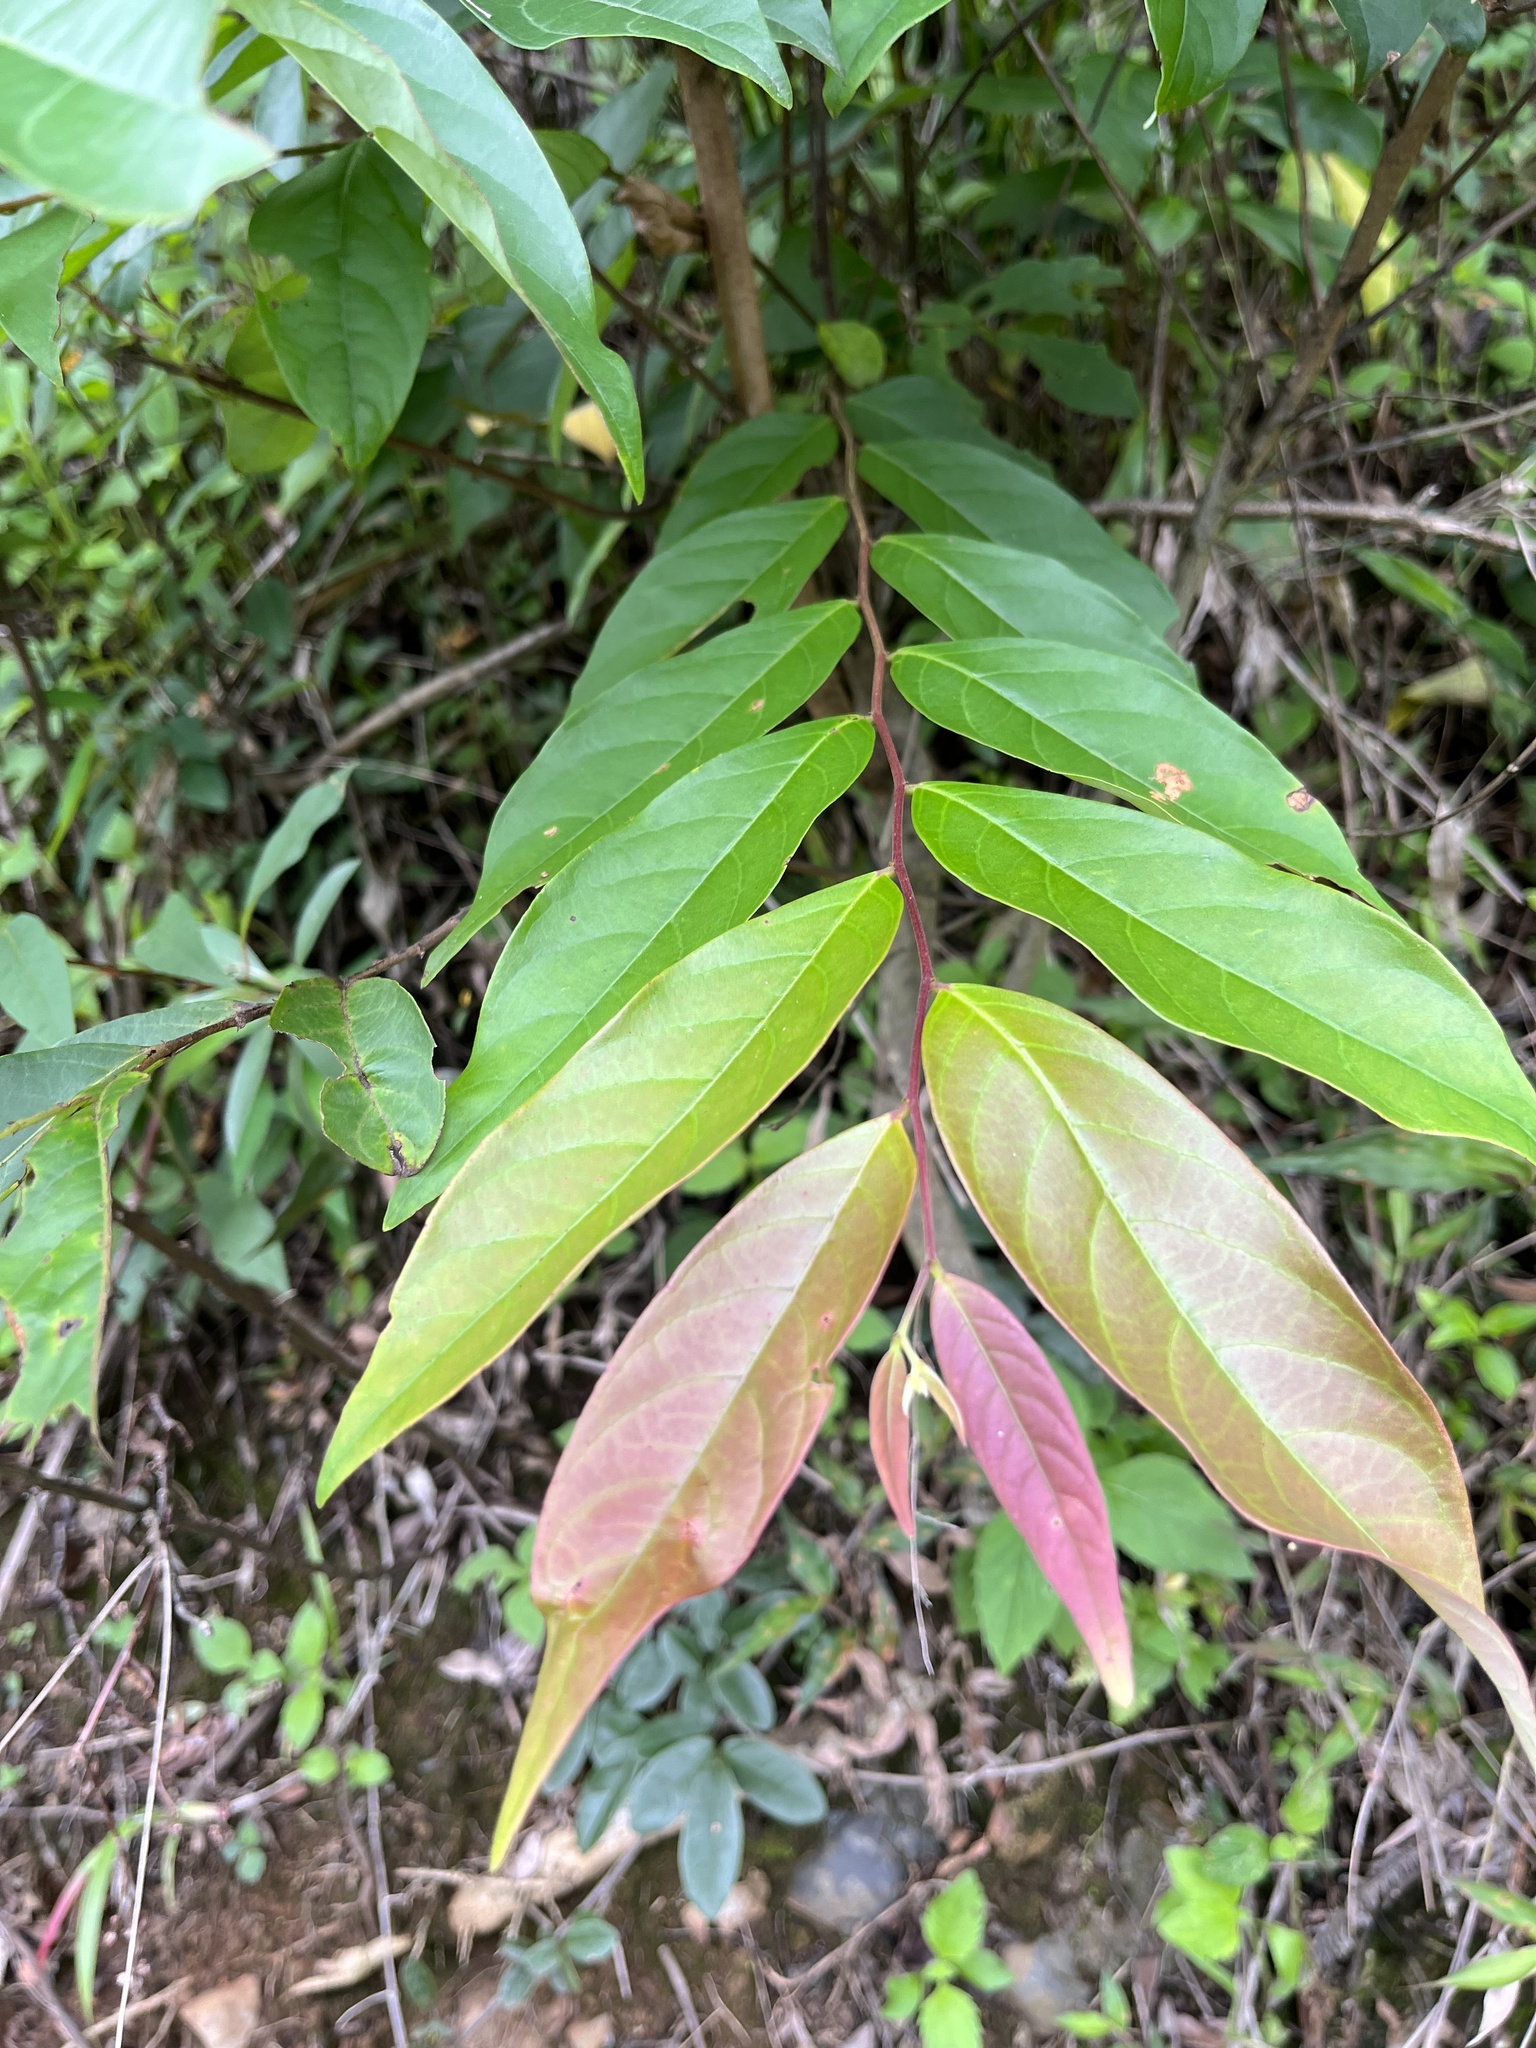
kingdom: Plantae
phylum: Tracheophyta
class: Magnoliopsida
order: Malpighiales
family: Phyllanthaceae
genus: Glochidion
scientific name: Glochidion acuminatum
